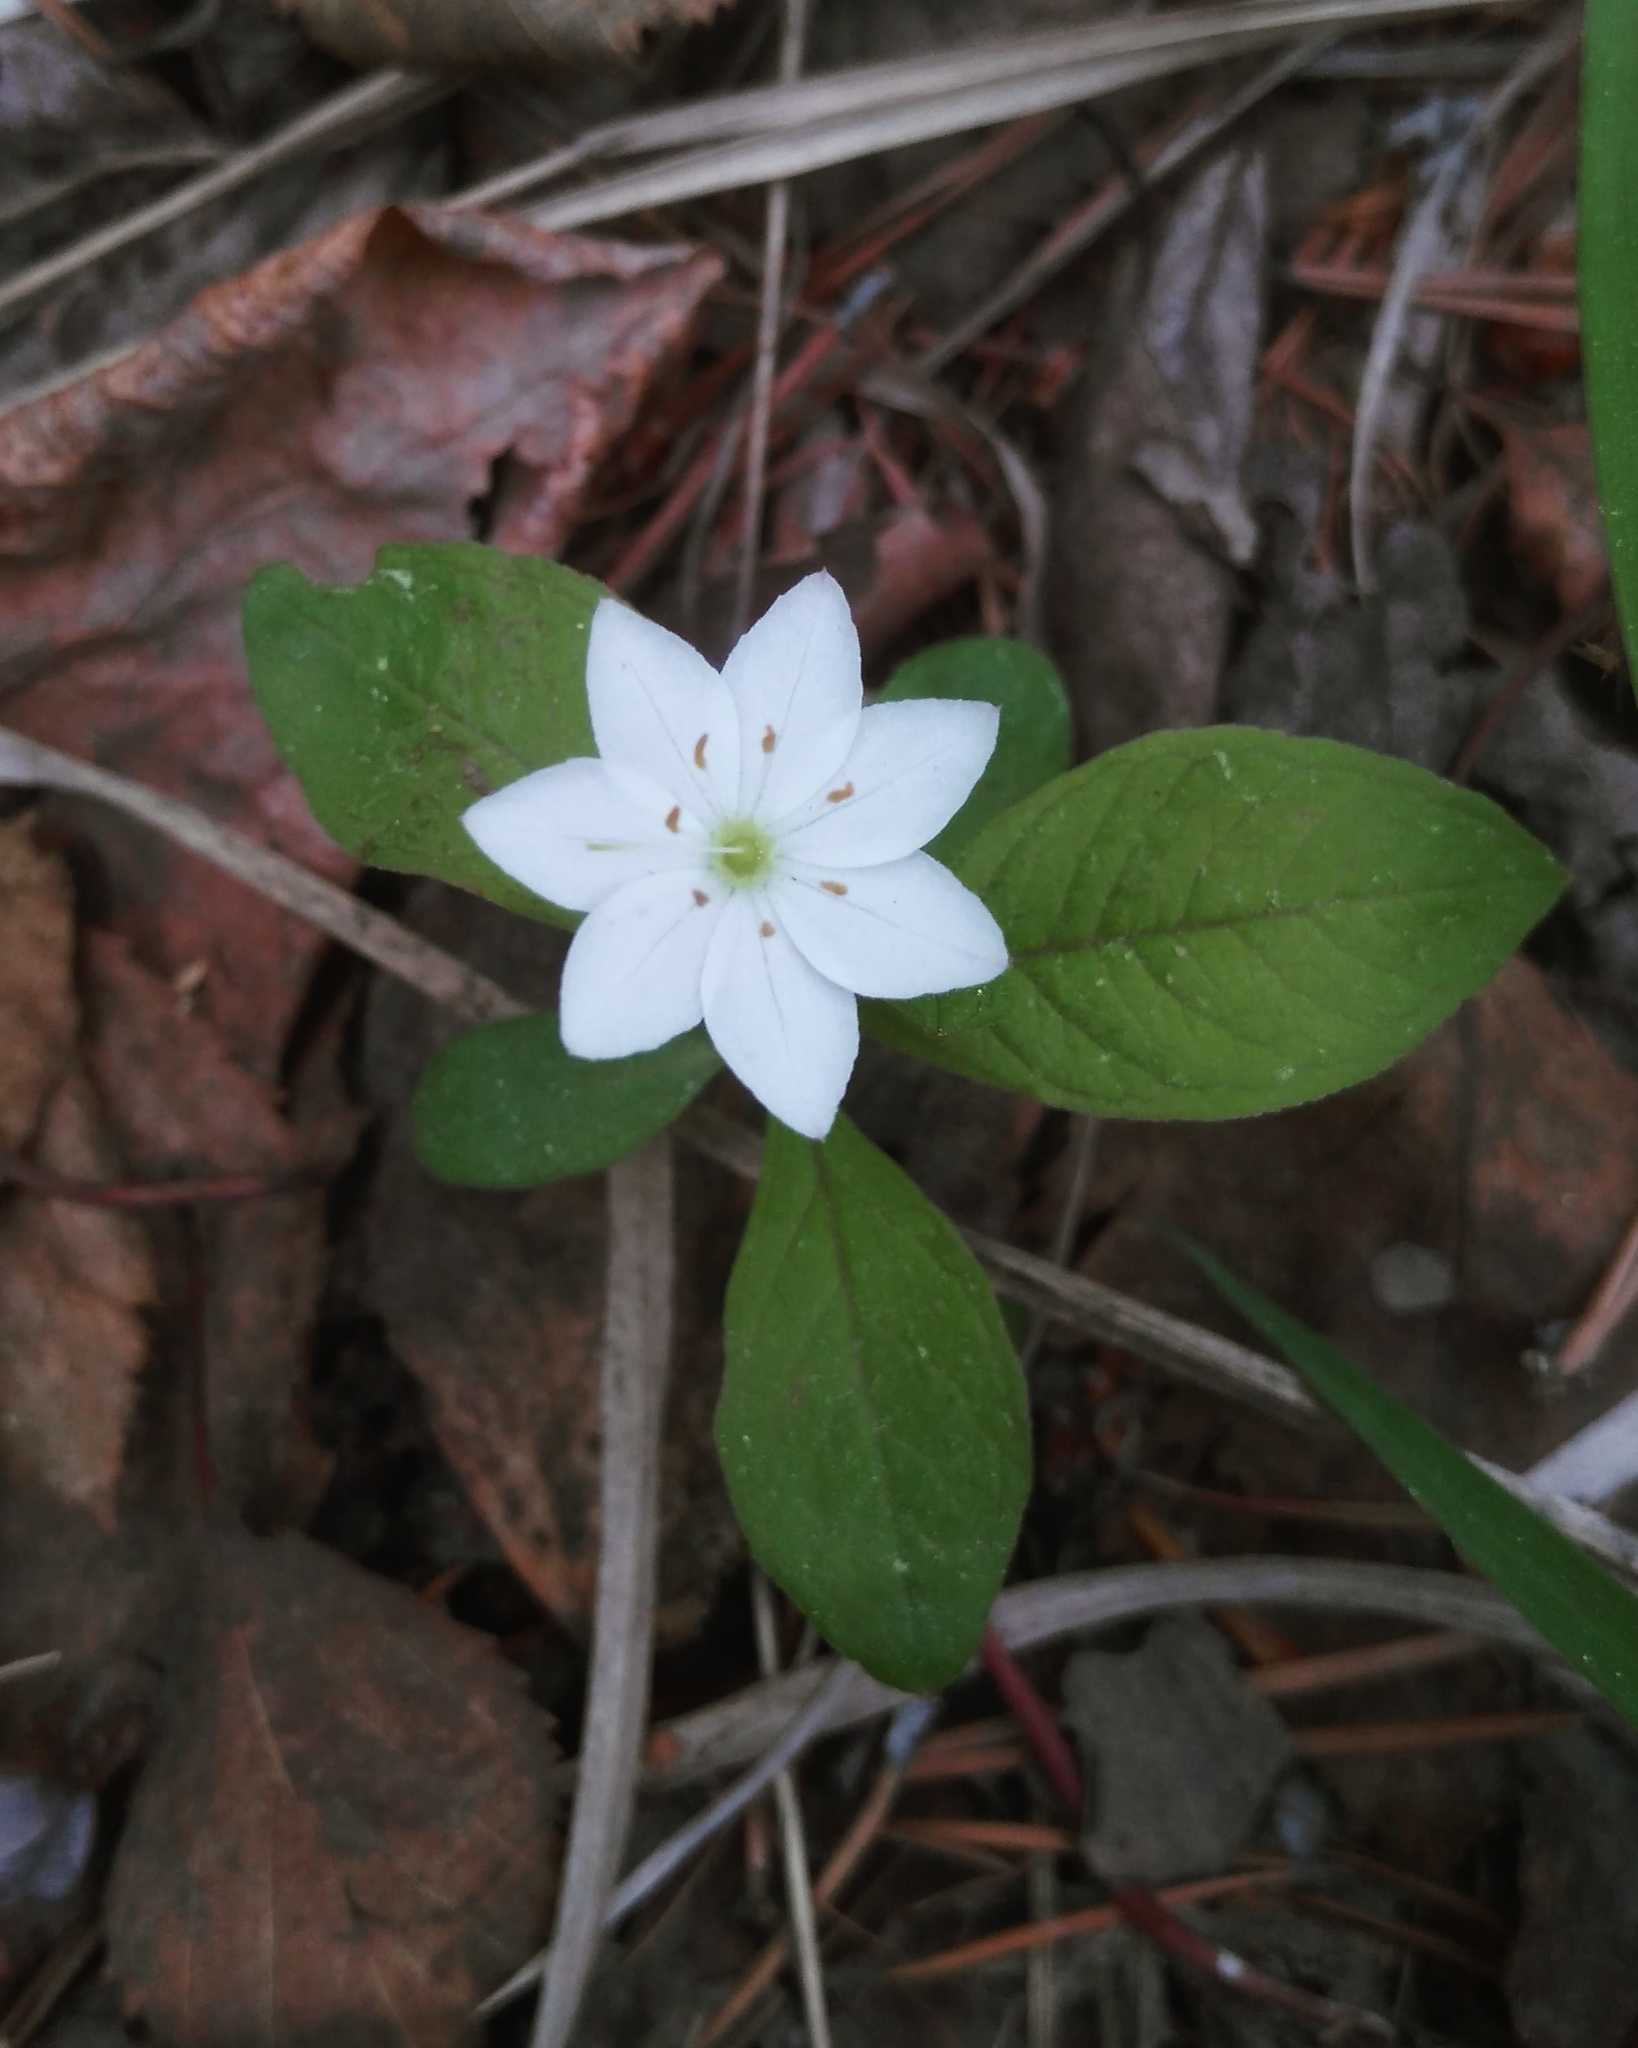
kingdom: Plantae
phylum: Tracheophyta
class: Magnoliopsida
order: Ericales
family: Primulaceae
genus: Lysimachia
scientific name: Lysimachia europaea
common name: Arctic starflower
